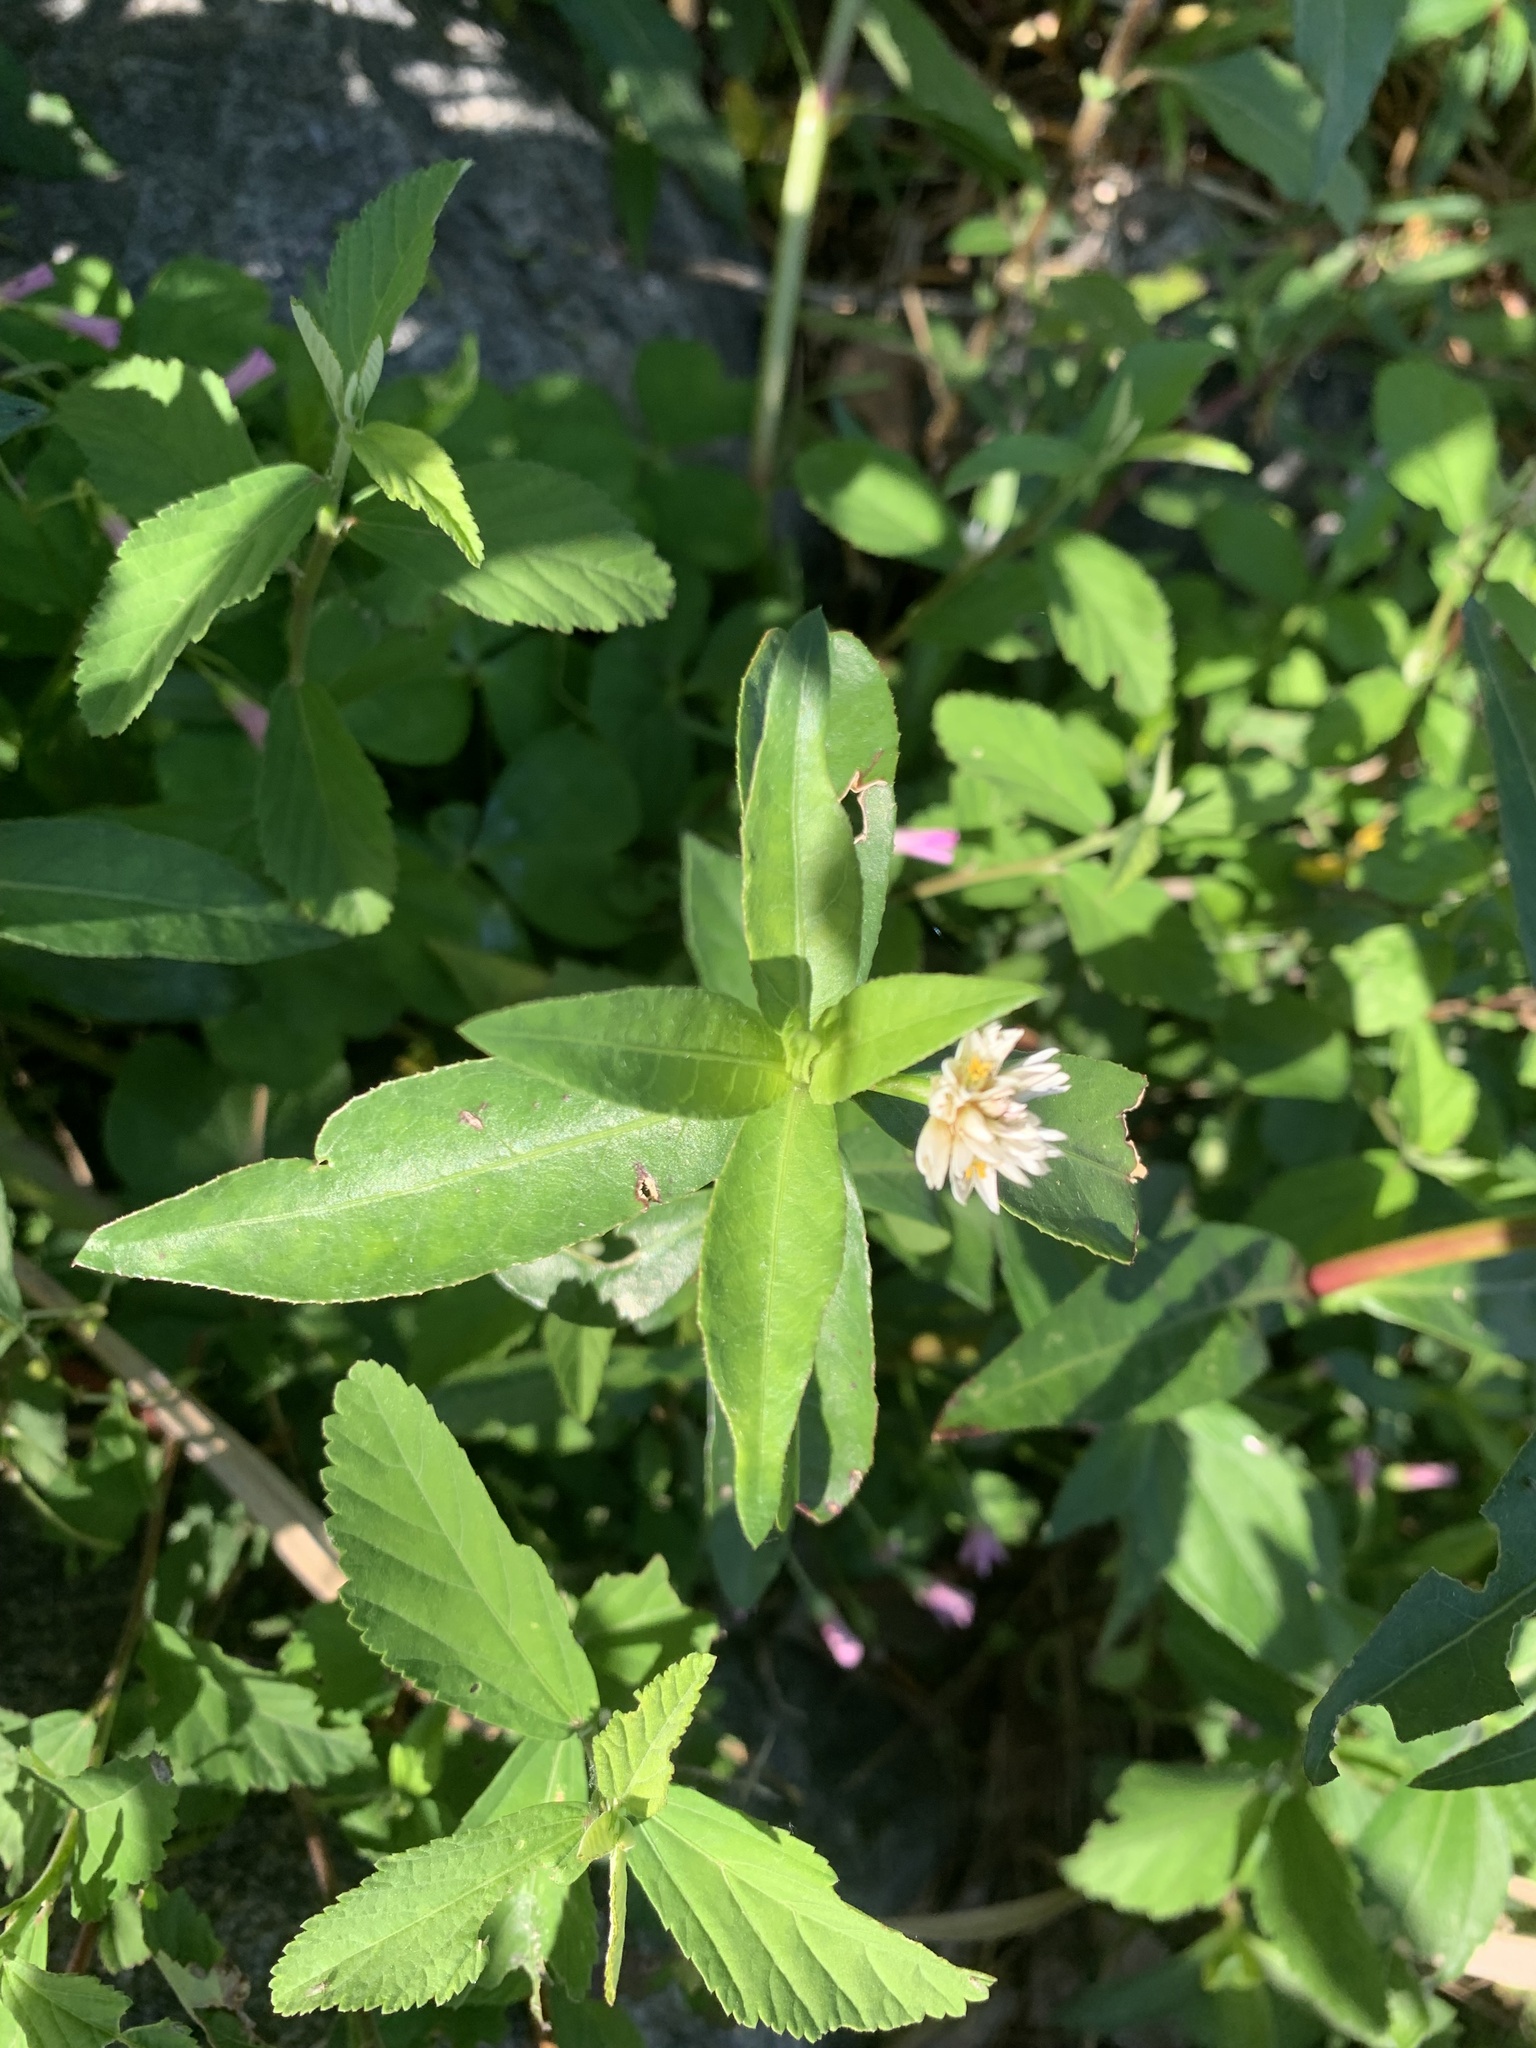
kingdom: Plantae
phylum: Tracheophyta
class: Magnoliopsida
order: Caryophyllales
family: Amaranthaceae
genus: Alternanthera
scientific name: Alternanthera philoxeroides
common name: Alligatorweed
